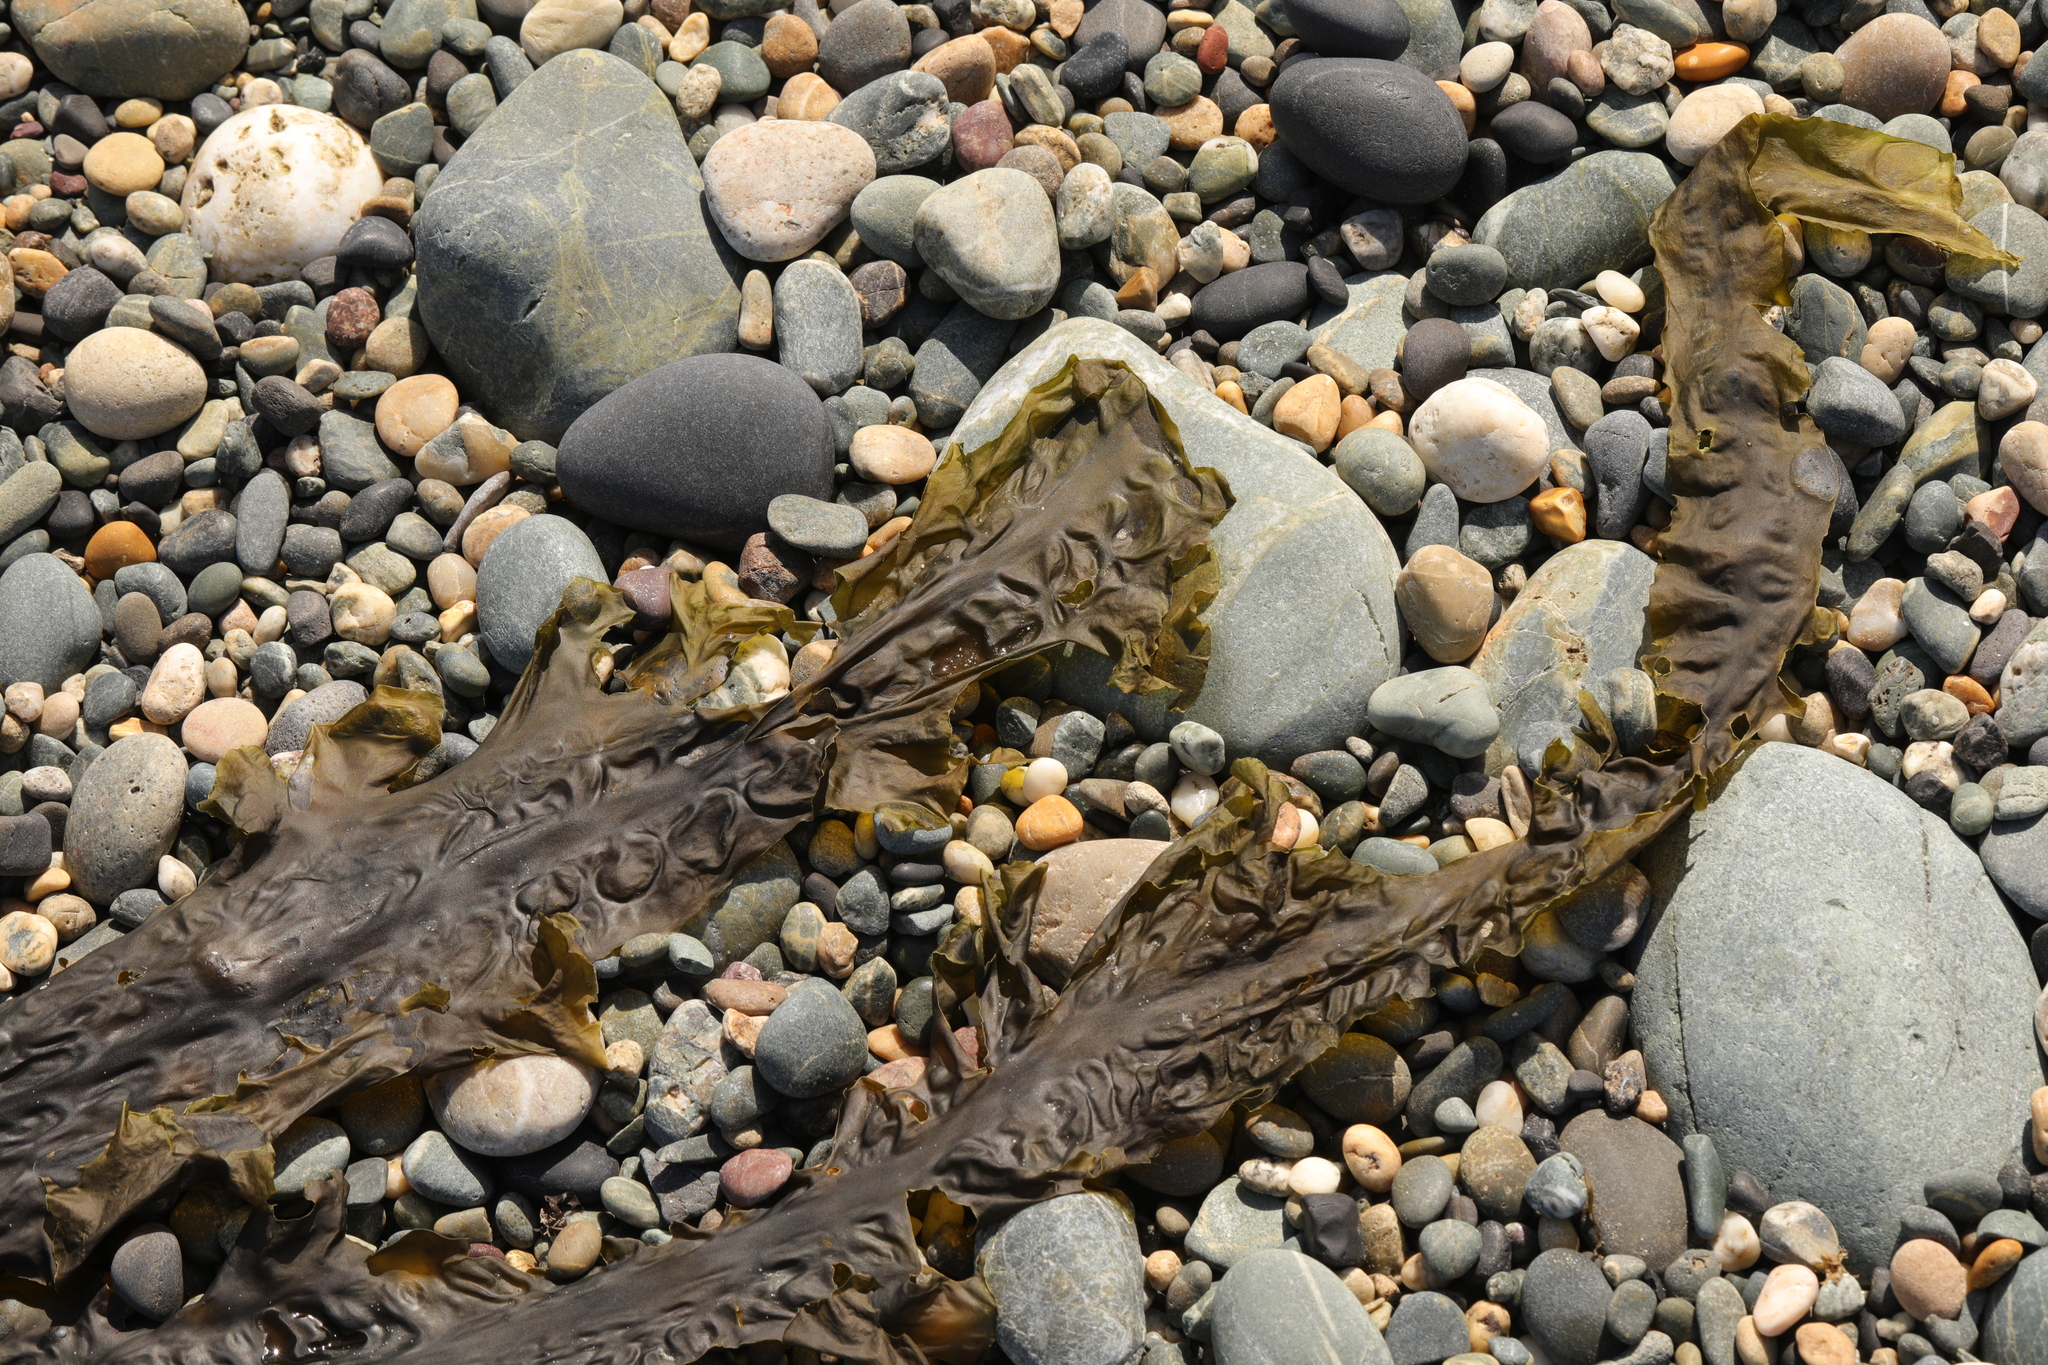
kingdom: Chromista
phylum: Ochrophyta
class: Phaeophyceae
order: Laminariales
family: Laminariaceae
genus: Saccharina
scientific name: Saccharina latissima
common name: Poor man's weather glass
